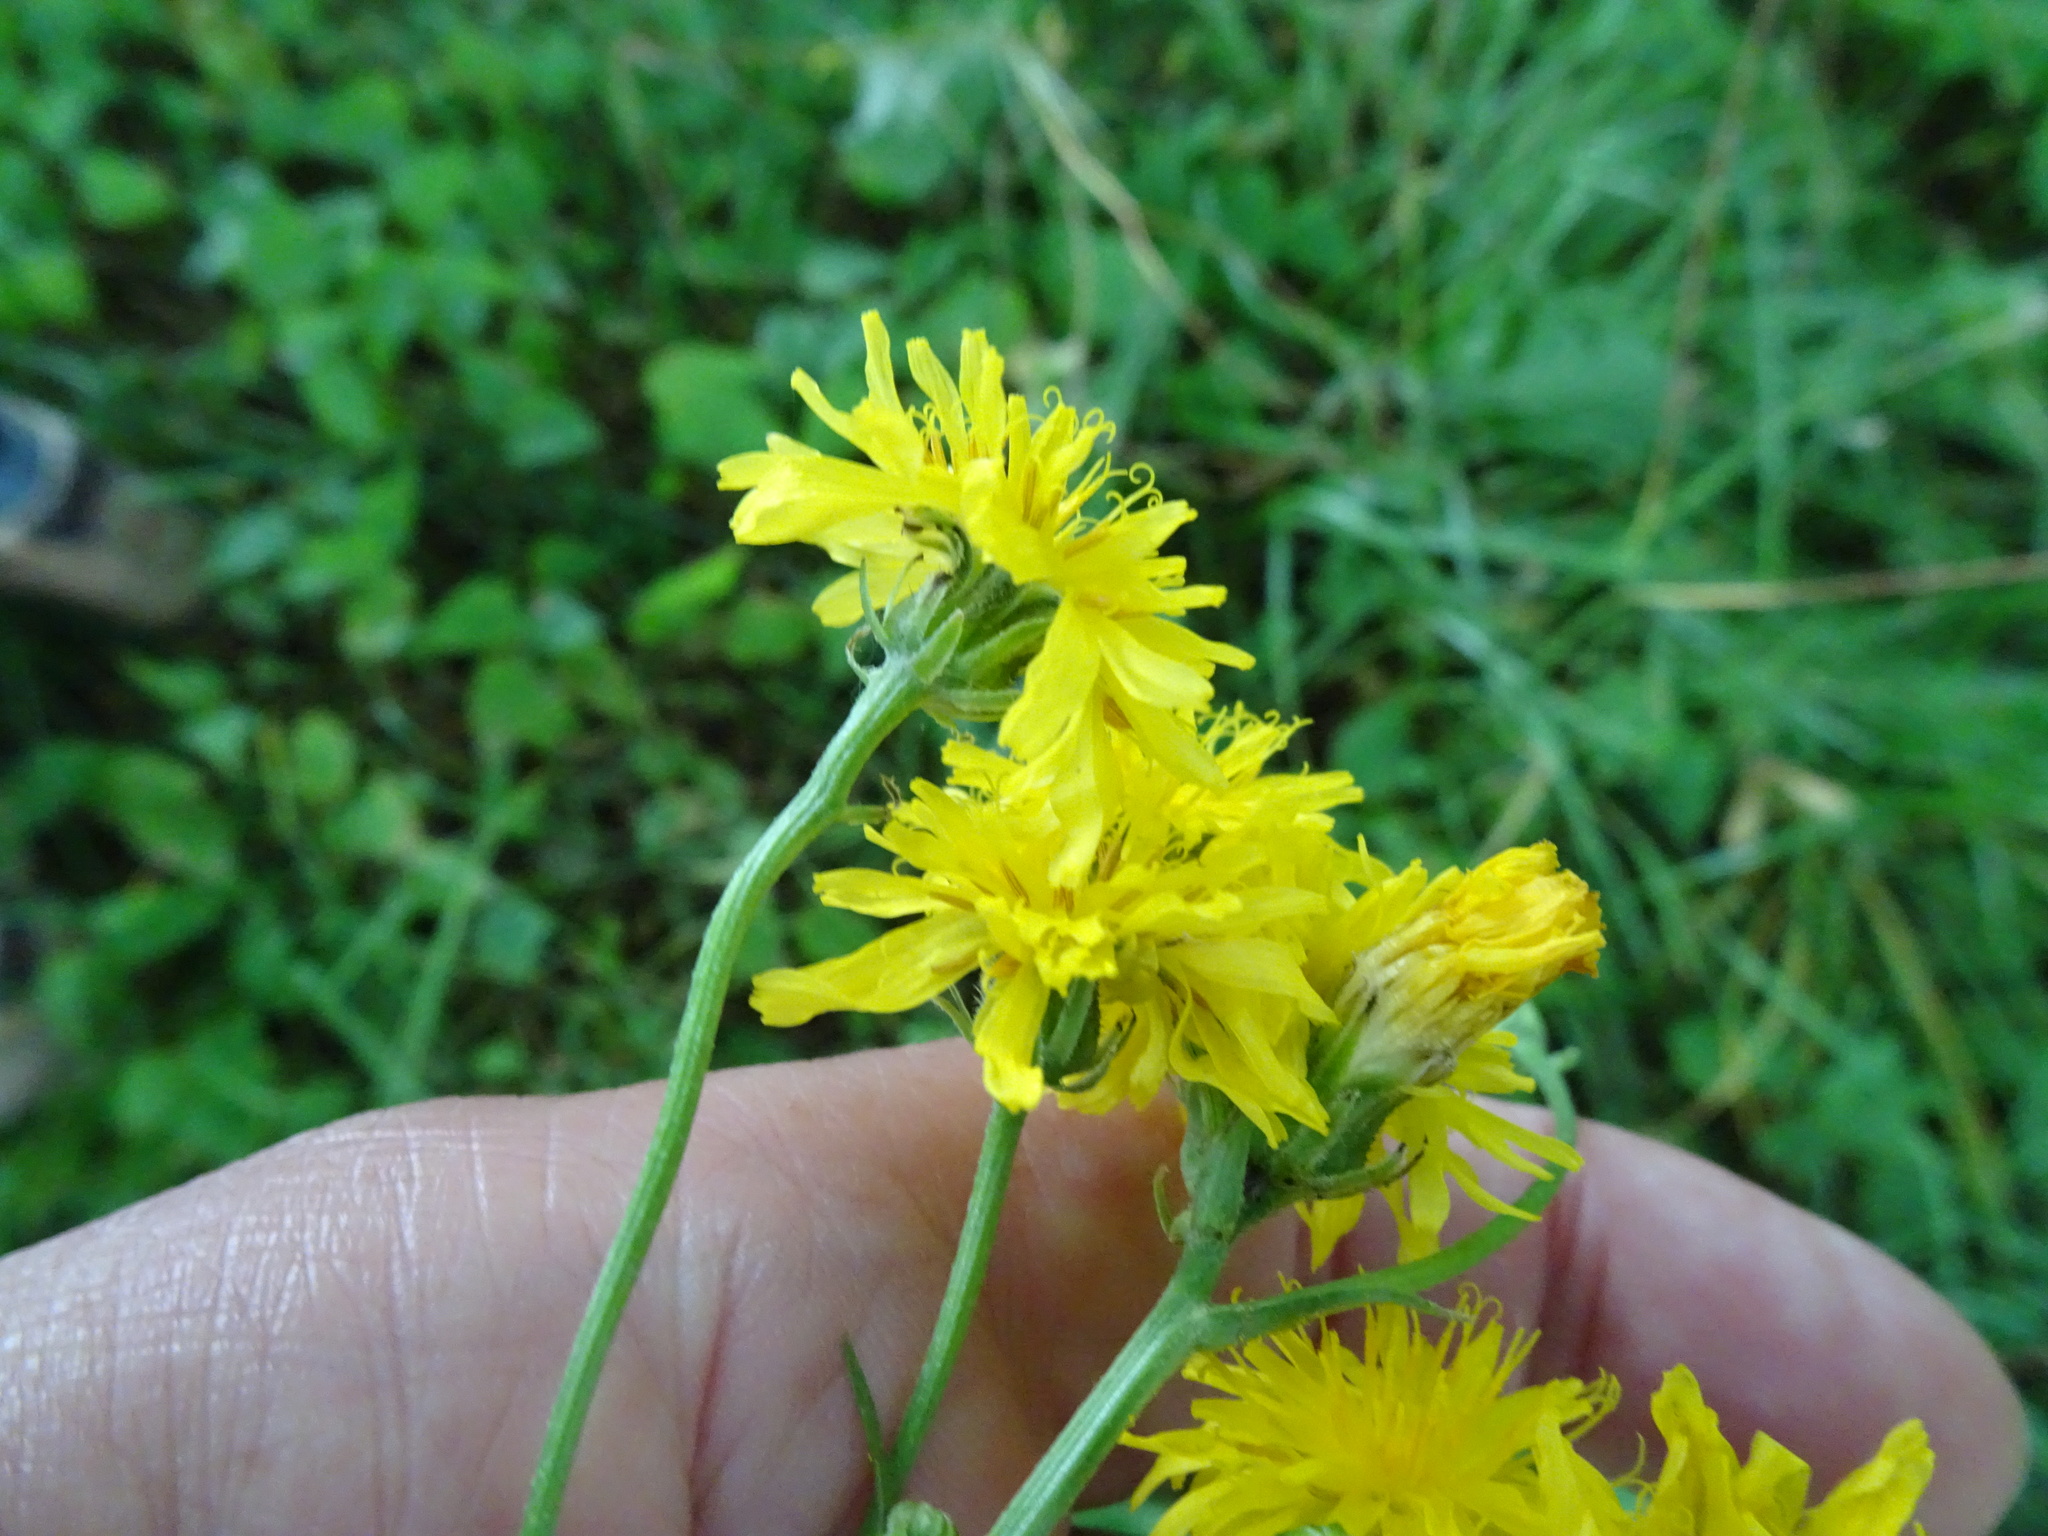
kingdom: Plantae
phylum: Tracheophyta
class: Magnoliopsida
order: Asterales
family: Asteraceae
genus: Crepis
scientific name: Crepis biennis
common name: Rough hawk's-beard
